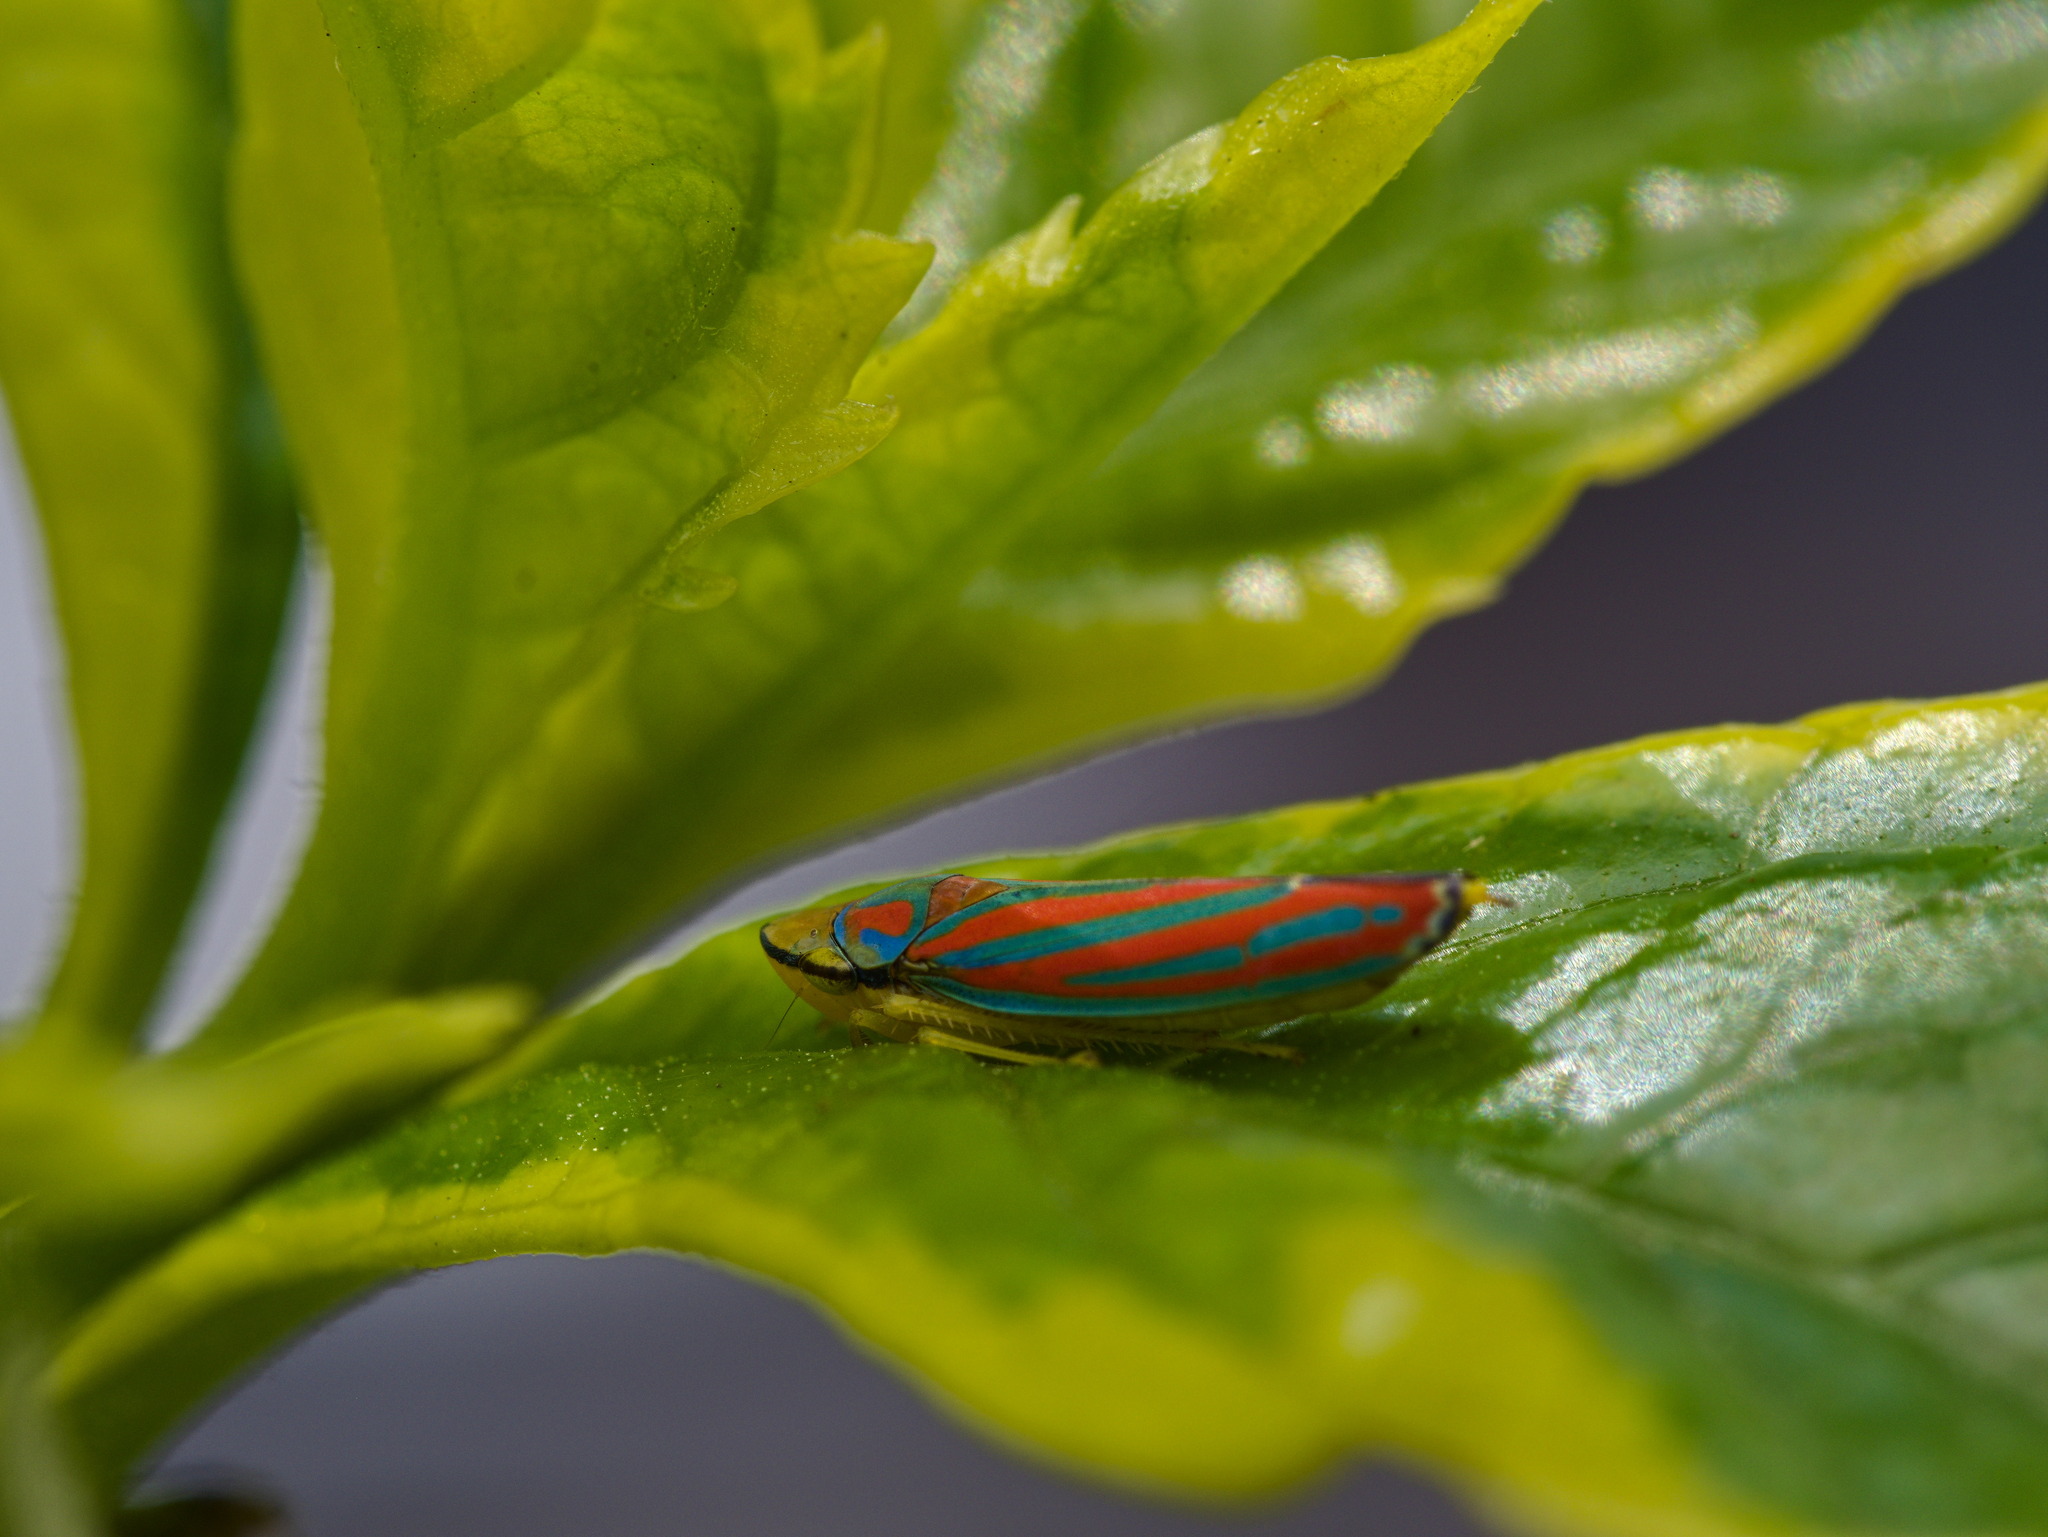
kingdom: Animalia
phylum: Arthropoda
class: Insecta
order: Hemiptera
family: Cicadellidae
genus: Graphocephala
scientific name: Graphocephala coccinea
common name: Candy-striped leafhopper
